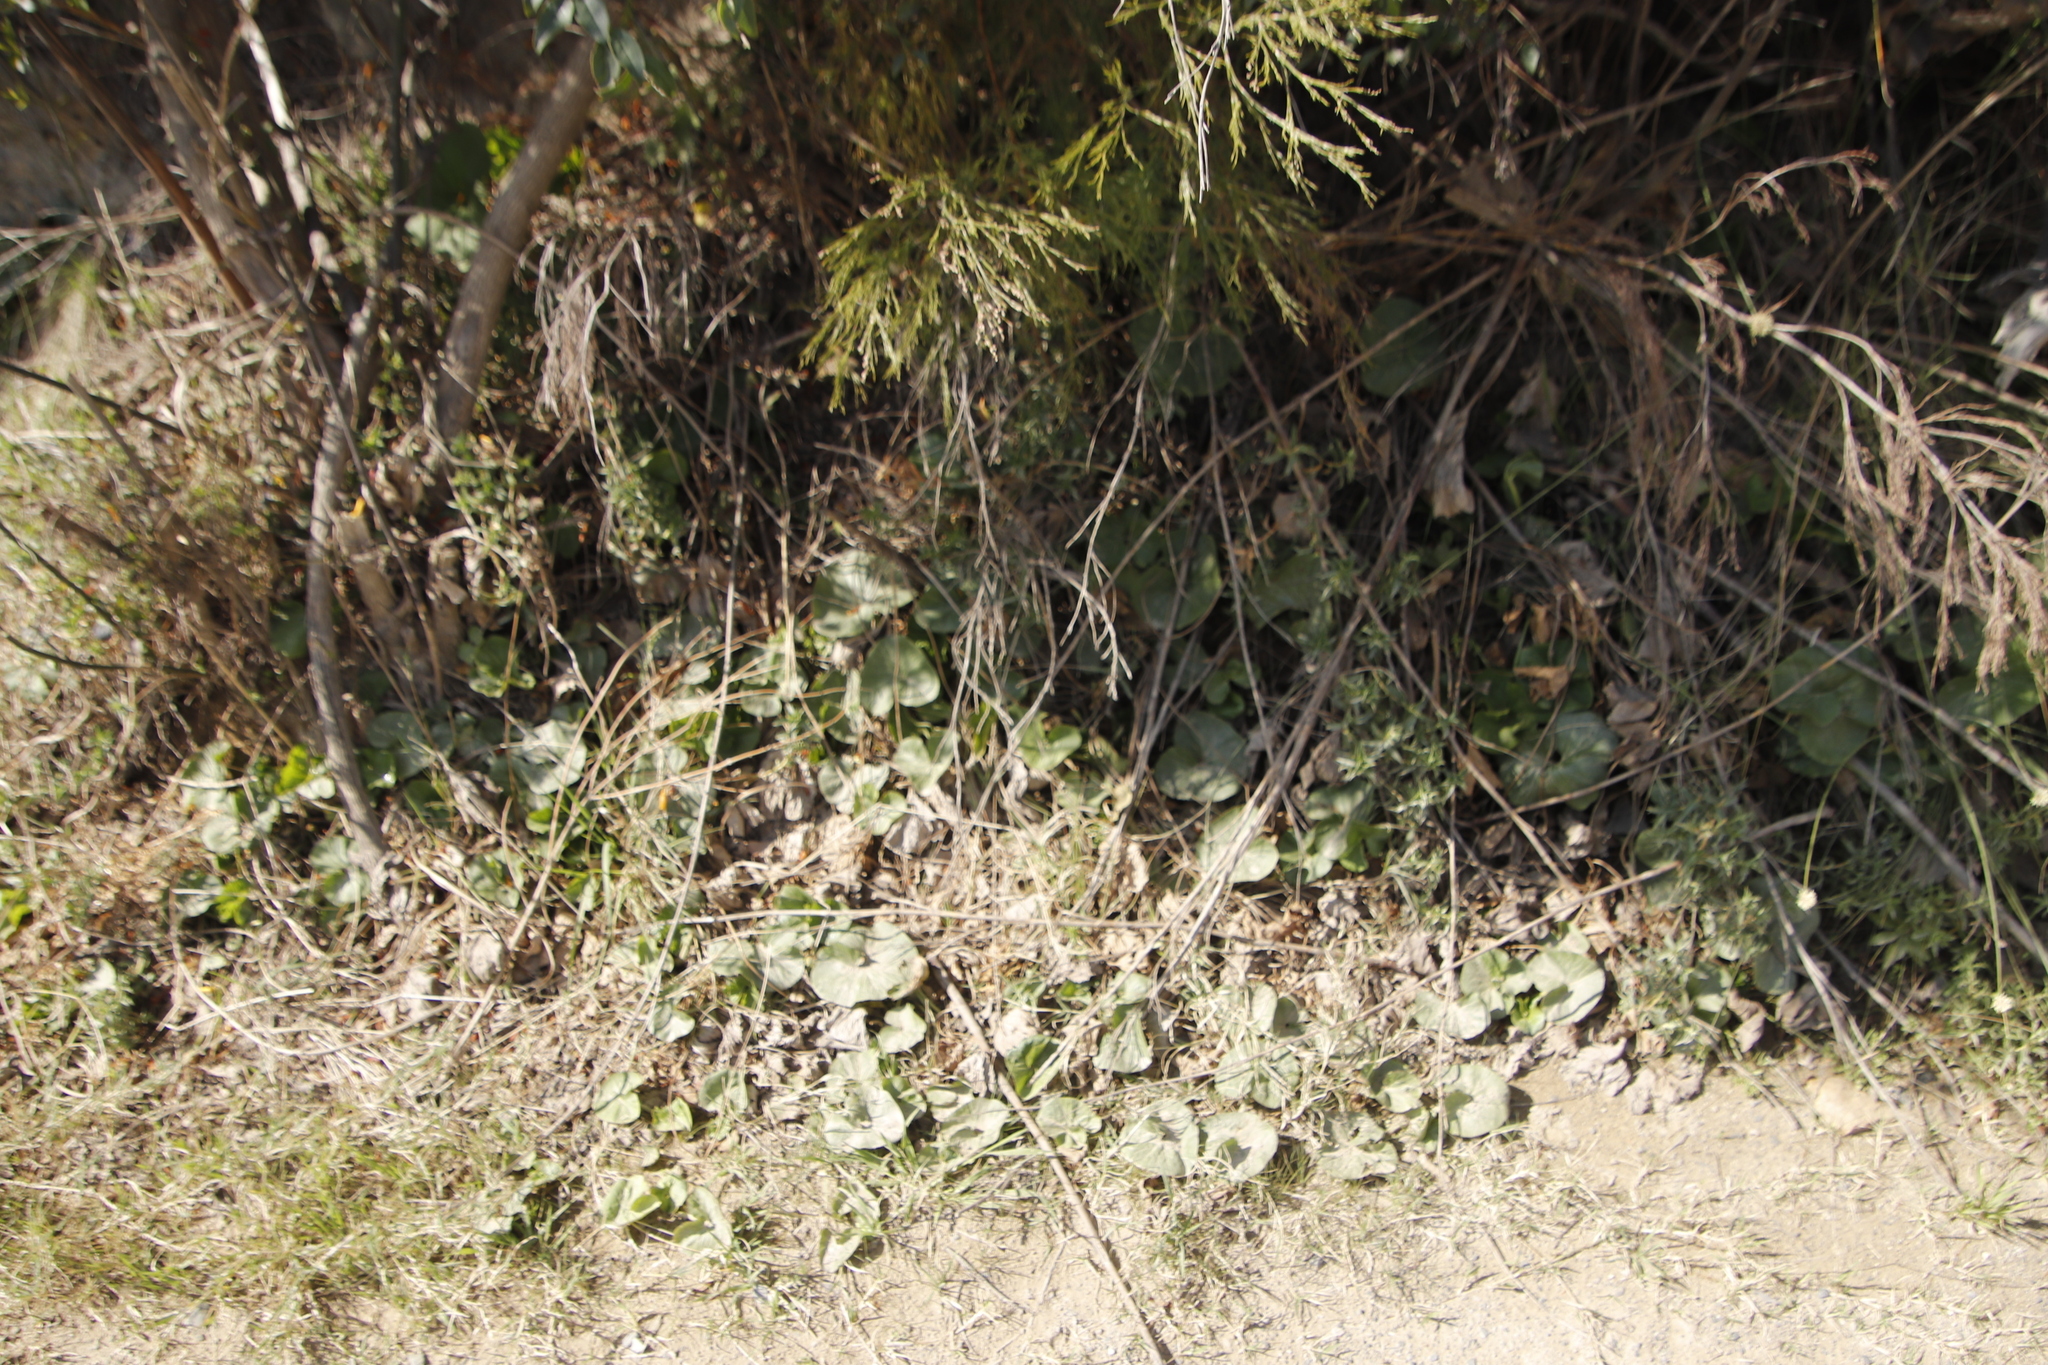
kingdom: Plantae
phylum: Tracheophyta
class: Magnoliopsida
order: Gunnerales
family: Gunneraceae
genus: Gunnera
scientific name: Gunnera perpensa
